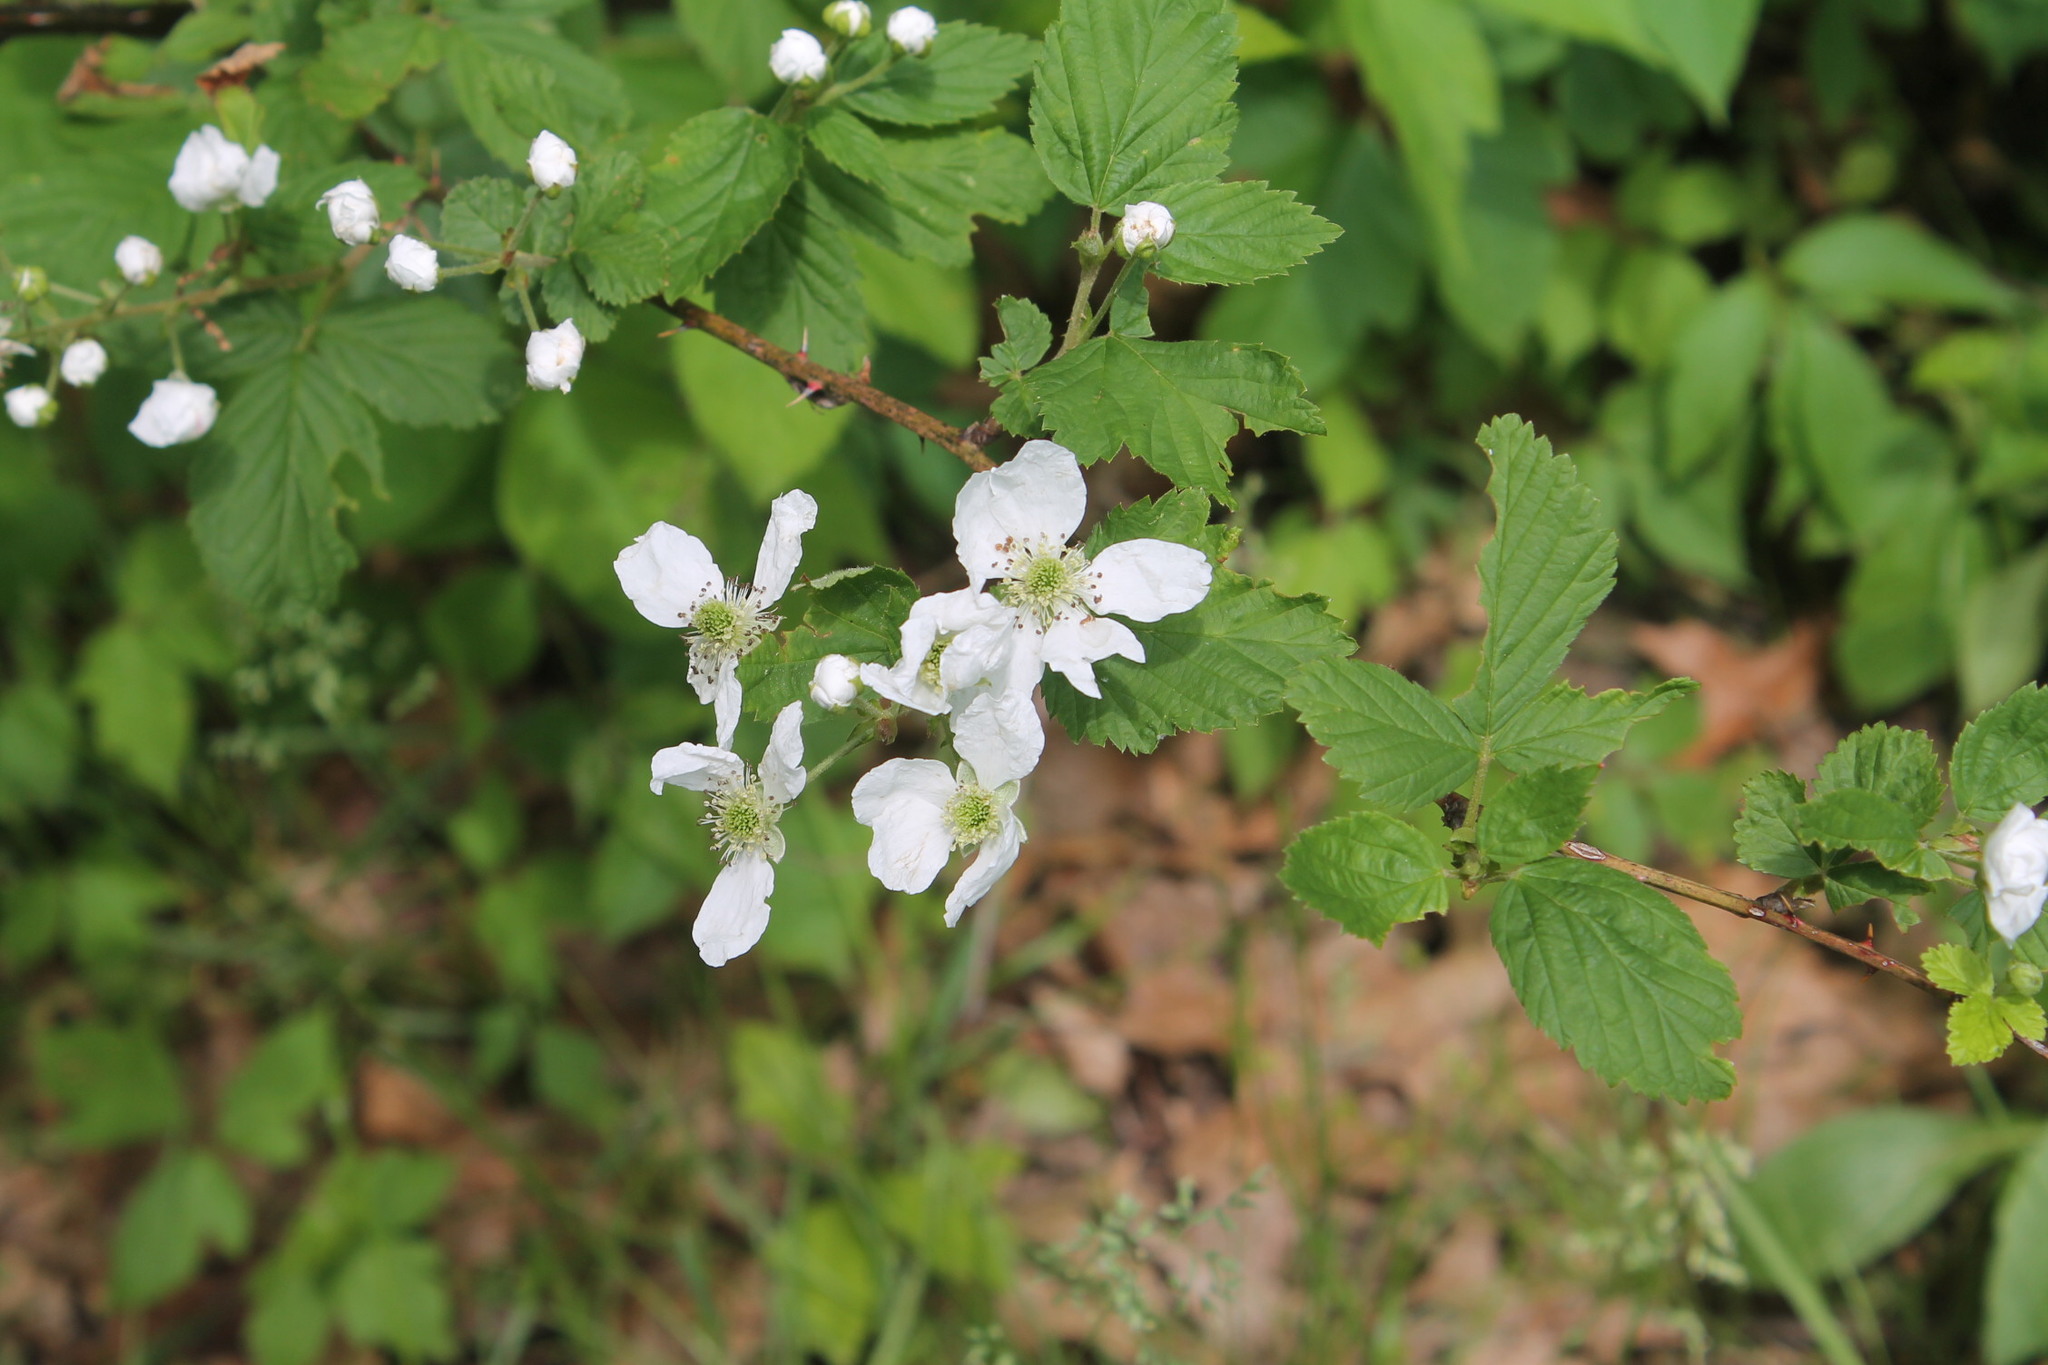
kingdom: Plantae
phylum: Tracheophyta
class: Magnoliopsida
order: Rosales
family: Rosaceae
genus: Rubus
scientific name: Rubus allegheniensis
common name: Allegheny blackberry
